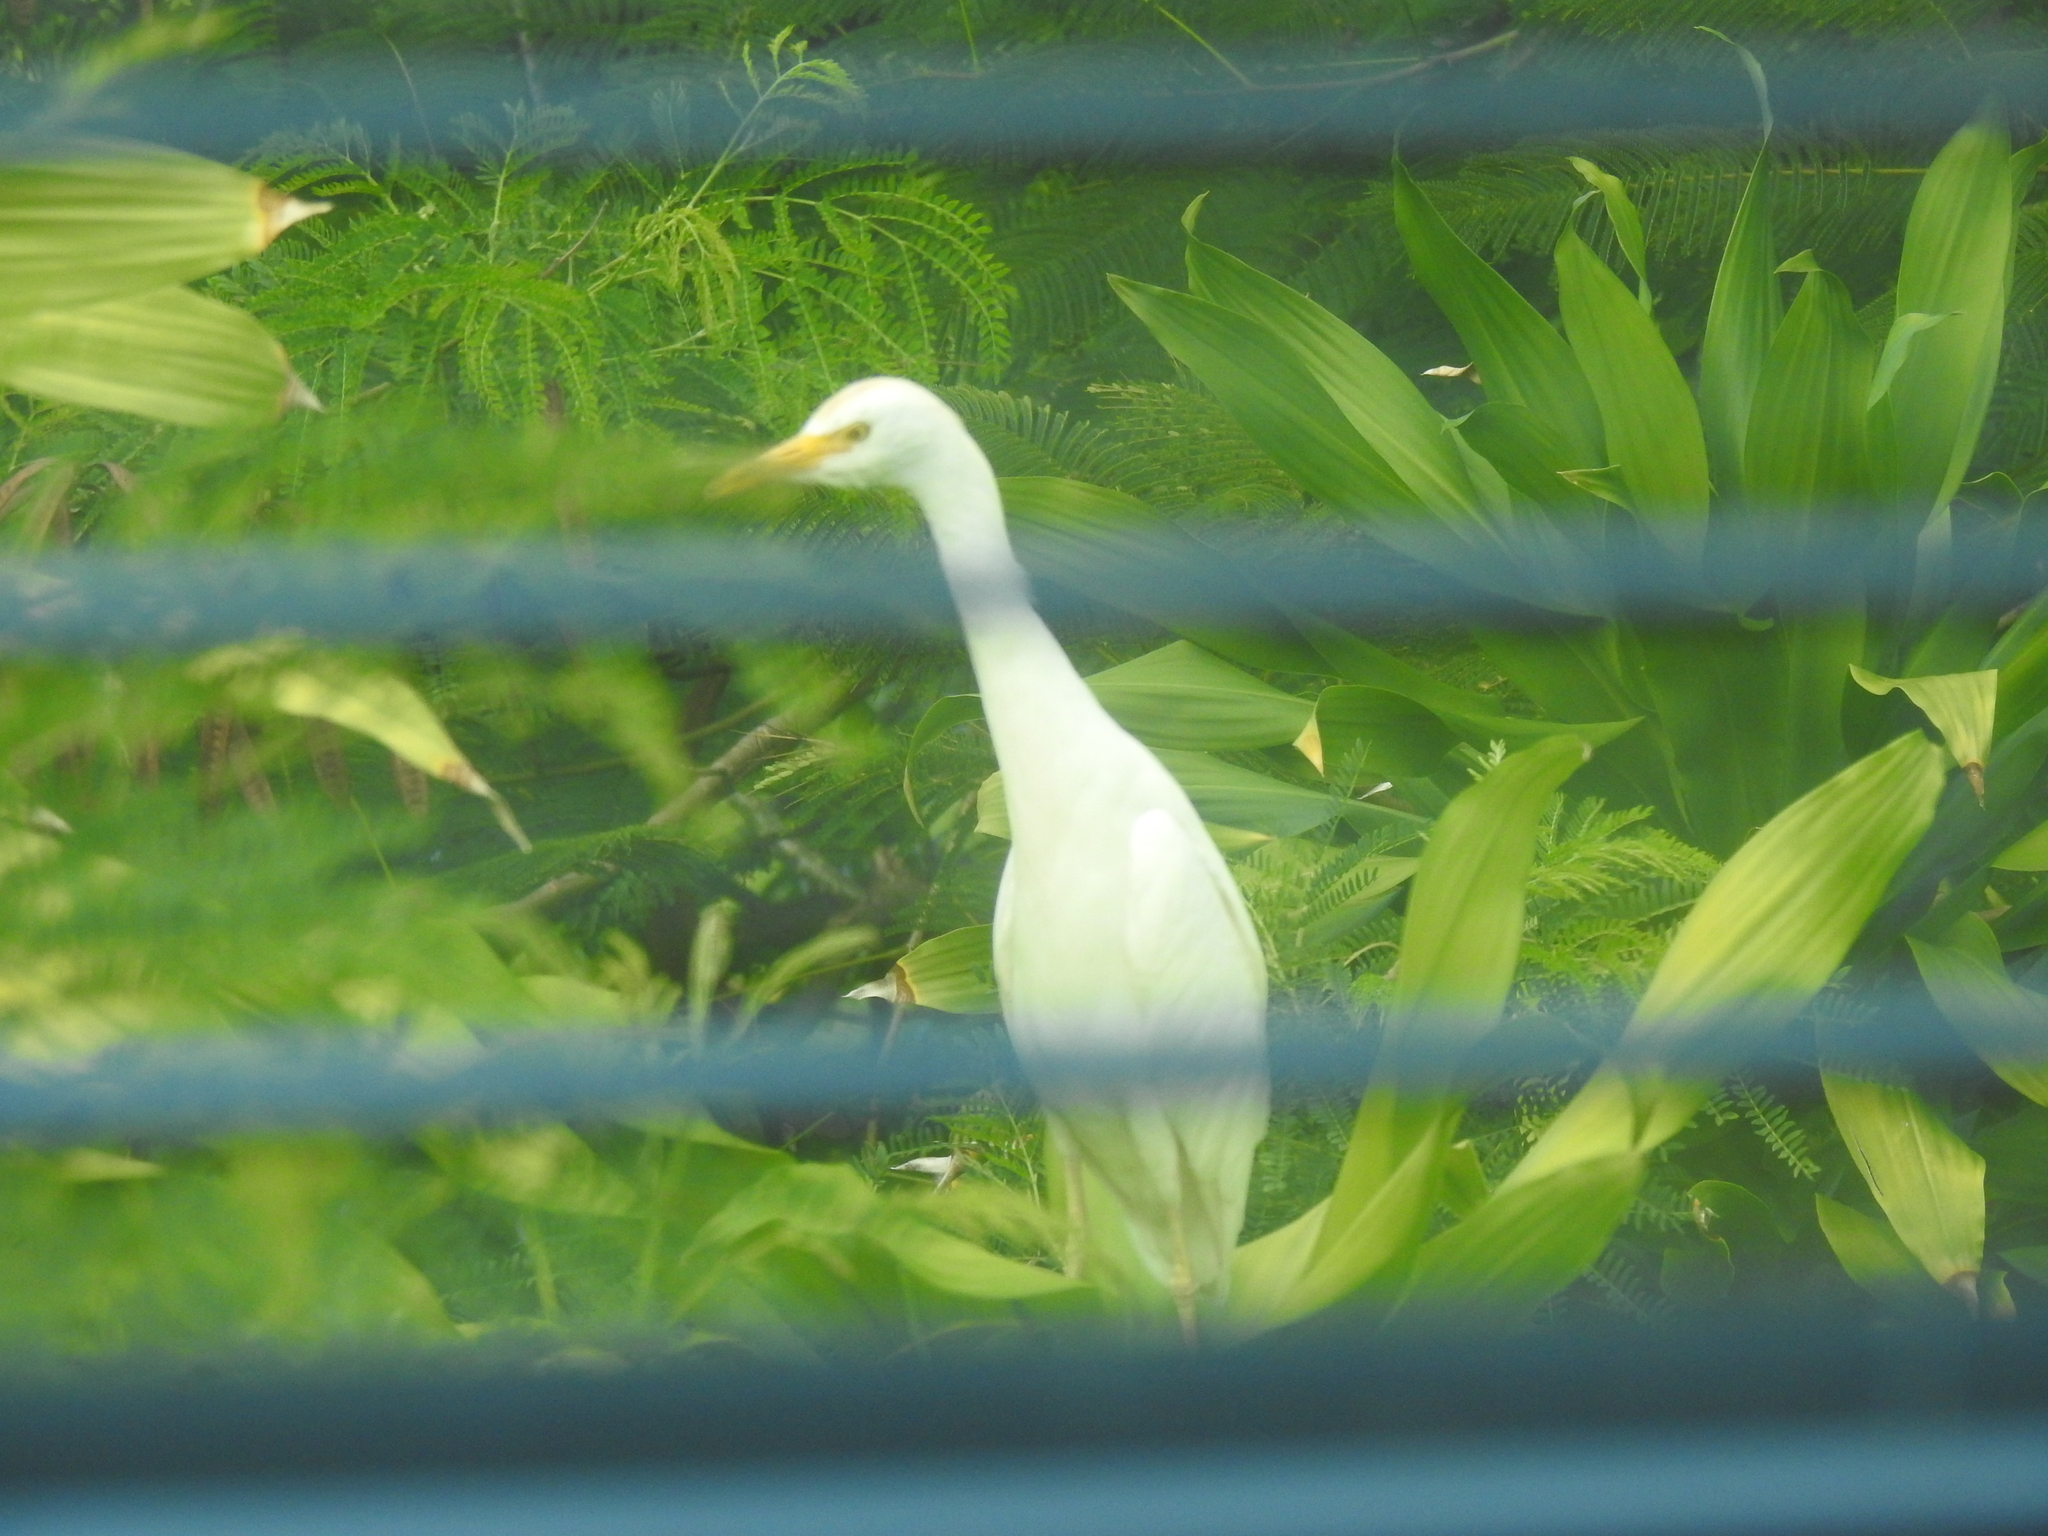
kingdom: Animalia
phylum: Chordata
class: Aves
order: Pelecaniformes
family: Ardeidae
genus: Bubulcus
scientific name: Bubulcus ibis
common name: Cattle egret
